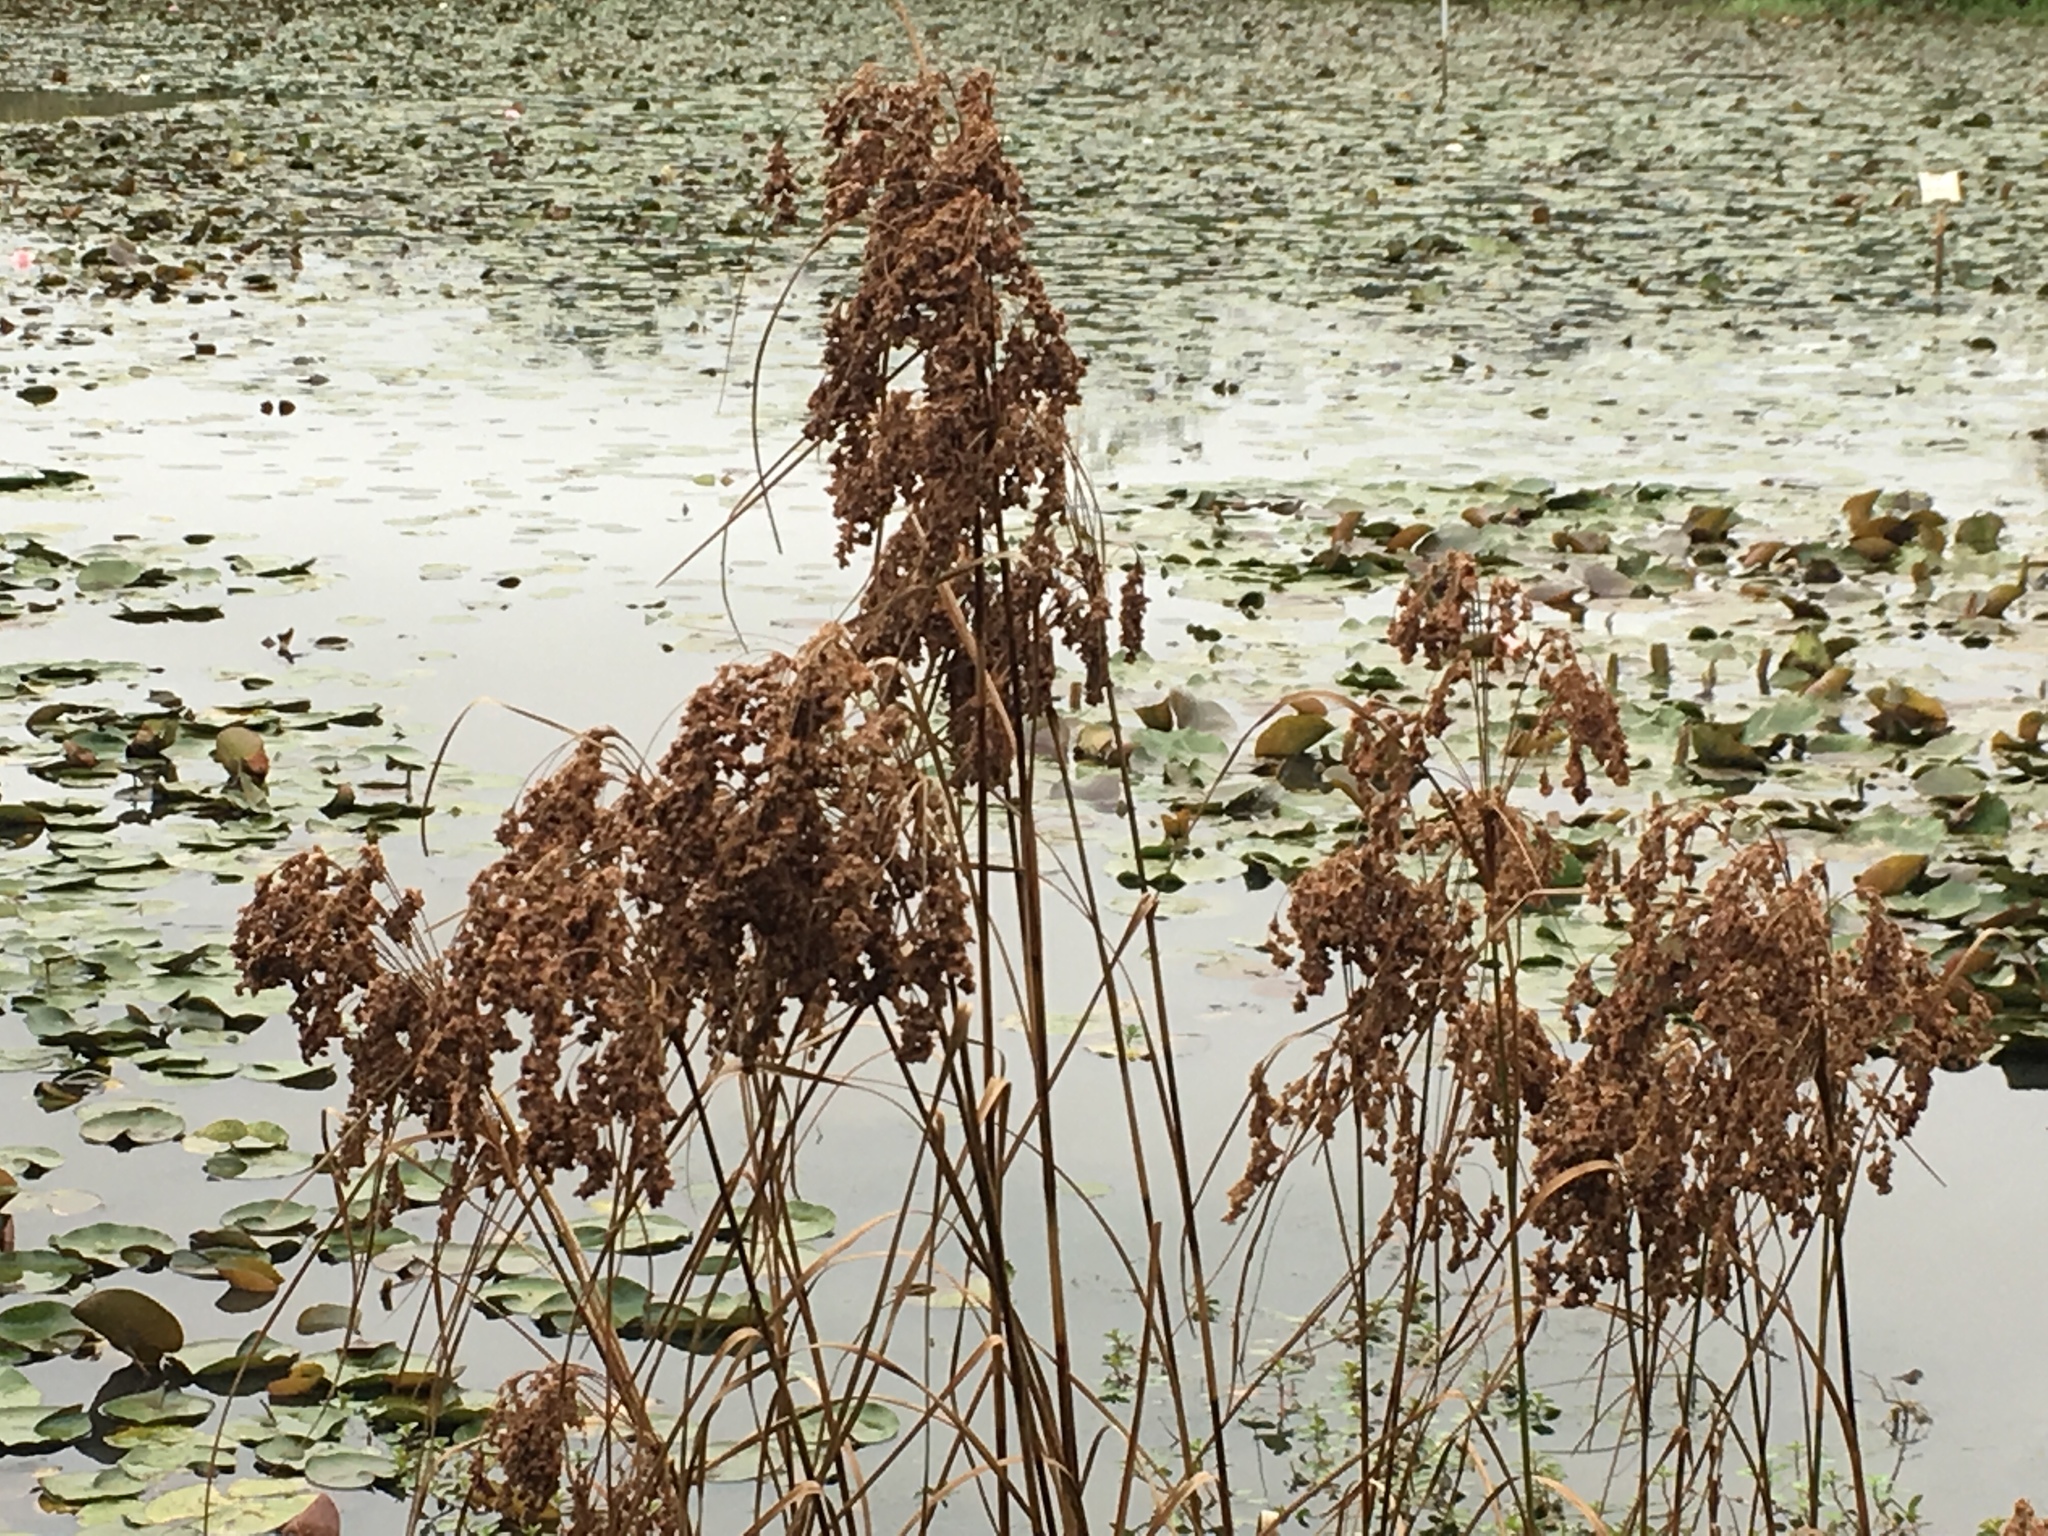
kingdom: Plantae
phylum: Tracheophyta
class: Liliopsida
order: Poales
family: Cyperaceae
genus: Scirpus
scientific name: Scirpus cyperinus
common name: Black-sheathed bulrush
